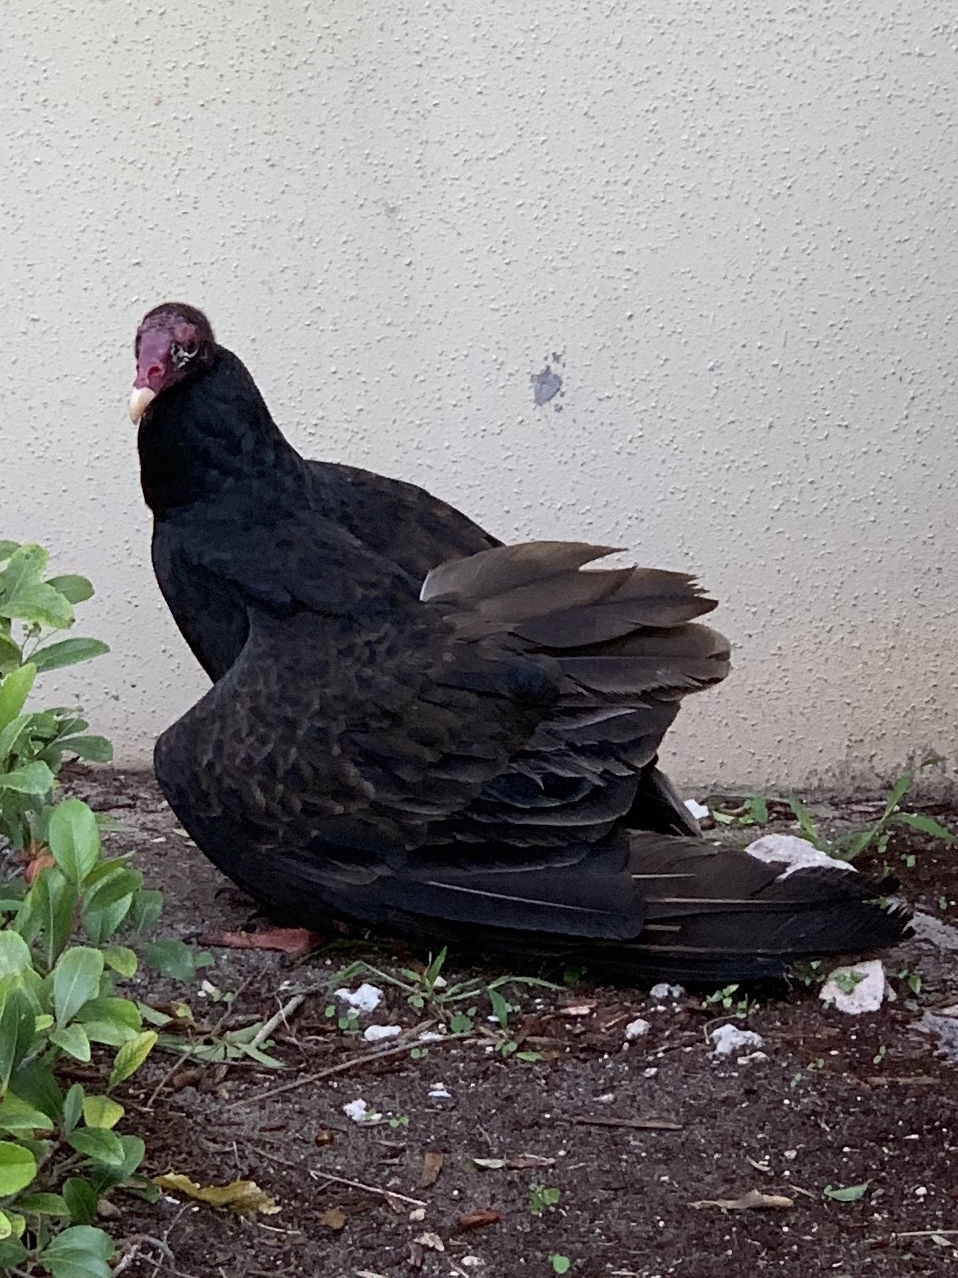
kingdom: Animalia
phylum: Chordata
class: Aves
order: Accipitriformes
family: Cathartidae
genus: Cathartes
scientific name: Cathartes aura
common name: Turkey vulture
